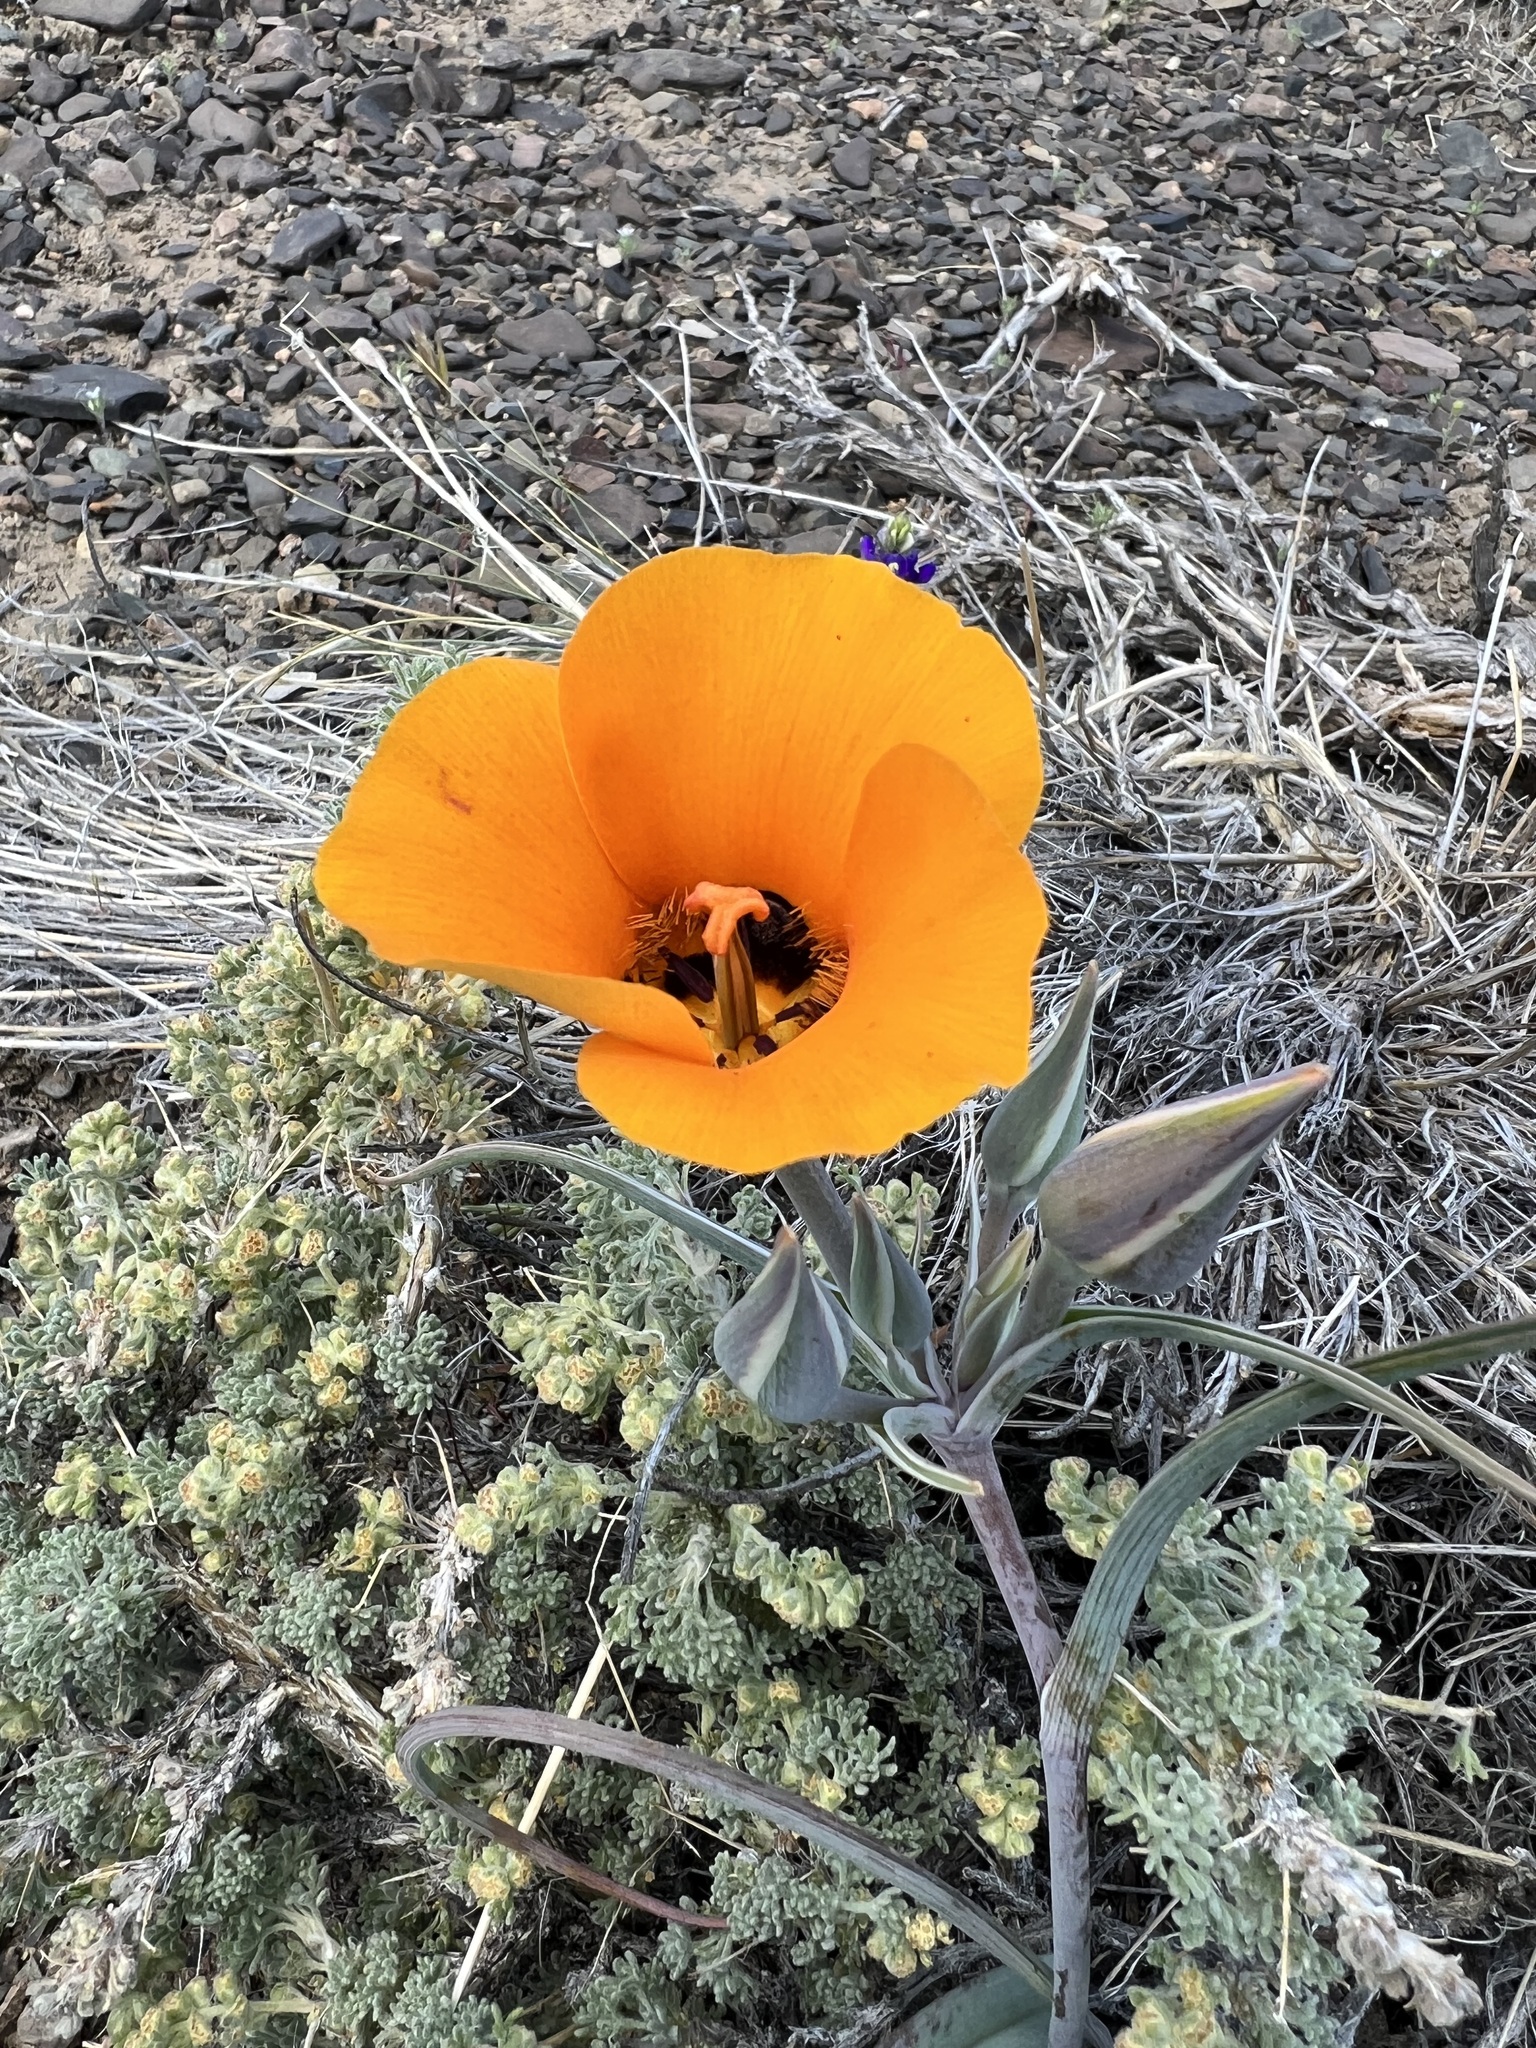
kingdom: Plantae
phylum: Tracheophyta
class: Liliopsida
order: Liliales
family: Liliaceae
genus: Calochortus
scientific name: Calochortus kennedyi
